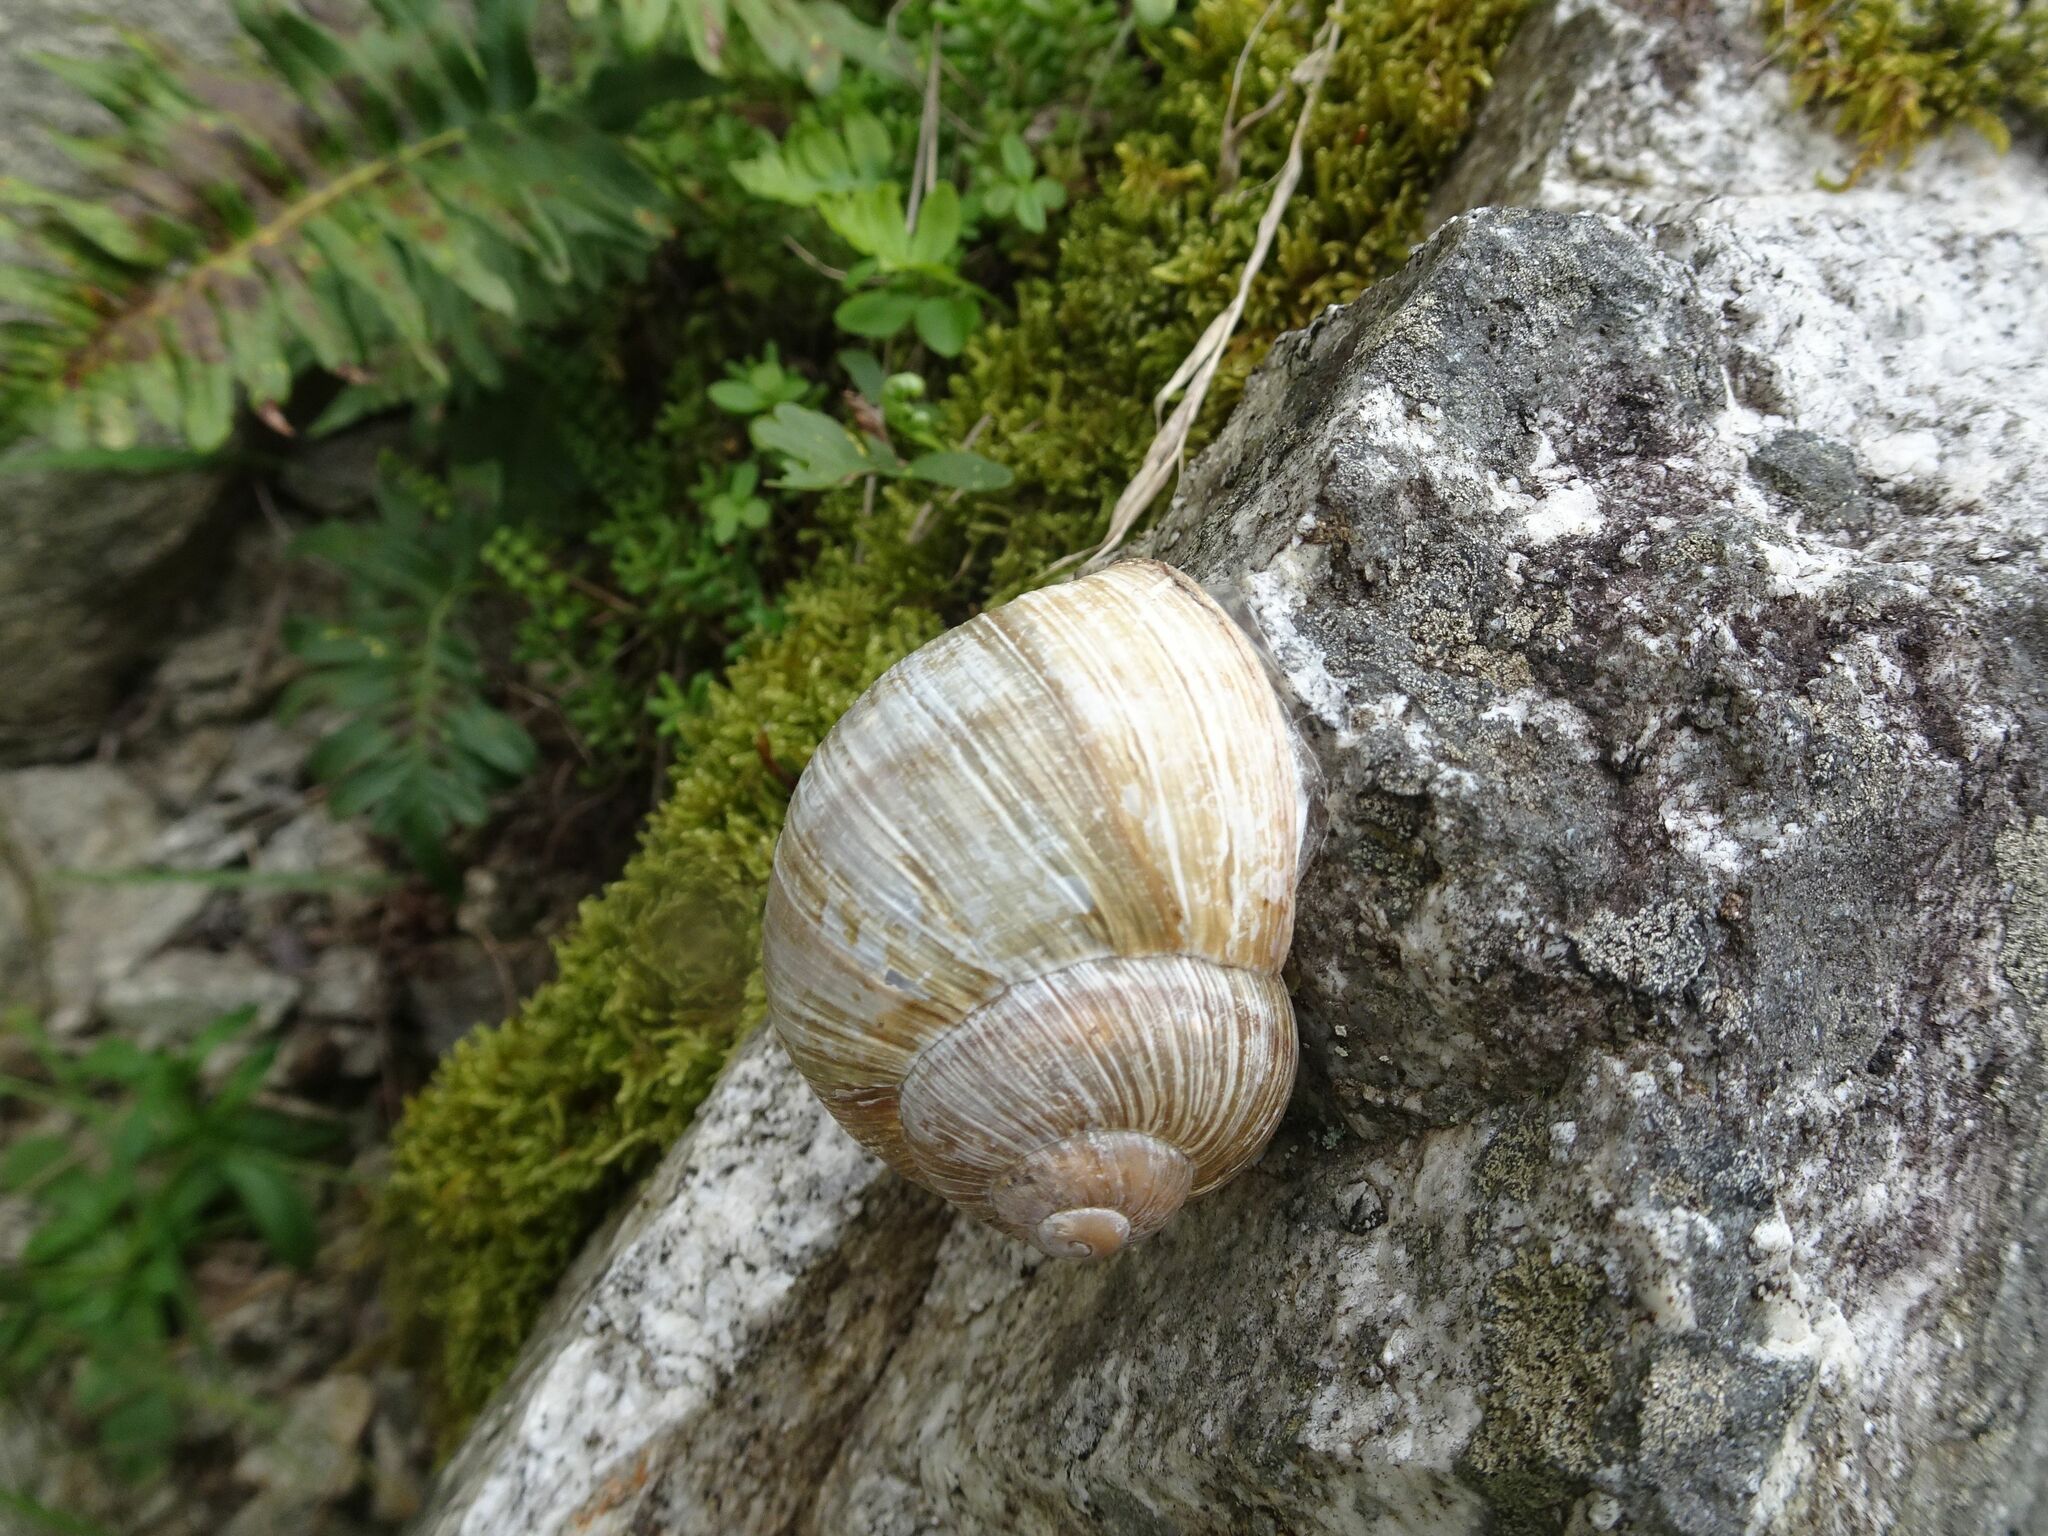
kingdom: Animalia
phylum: Mollusca
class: Gastropoda
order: Stylommatophora
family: Helicidae
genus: Helix
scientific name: Helix pomatia
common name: Roman snail
